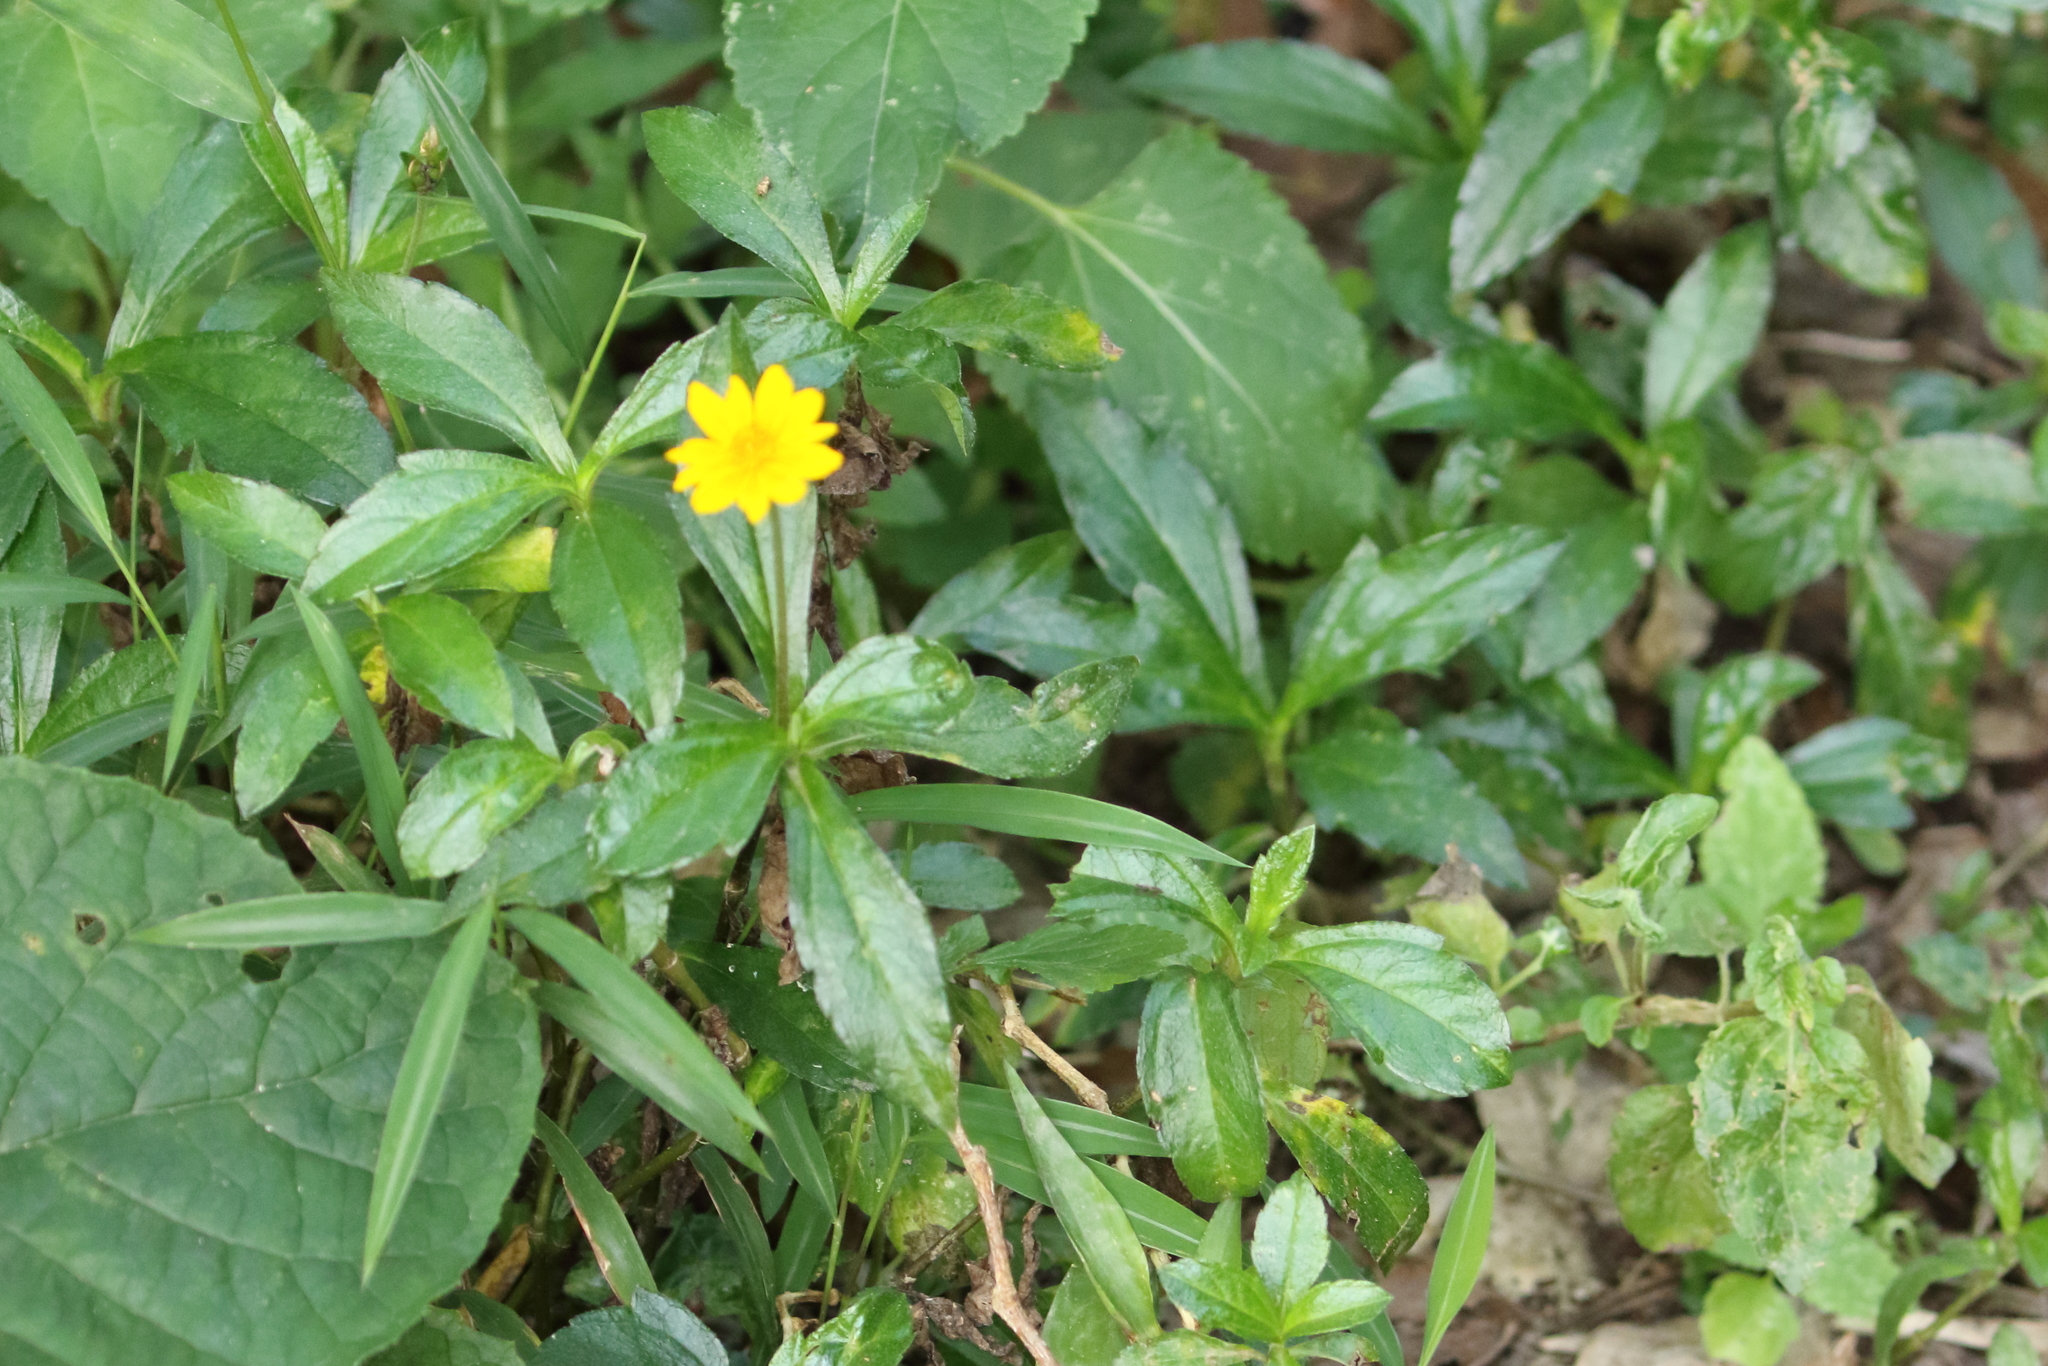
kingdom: Plantae
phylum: Tracheophyta
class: Magnoliopsida
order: Asterales
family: Asteraceae
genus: Sphagneticola
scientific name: Sphagneticola trilobata
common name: Bay biscayne creeping-oxeye
